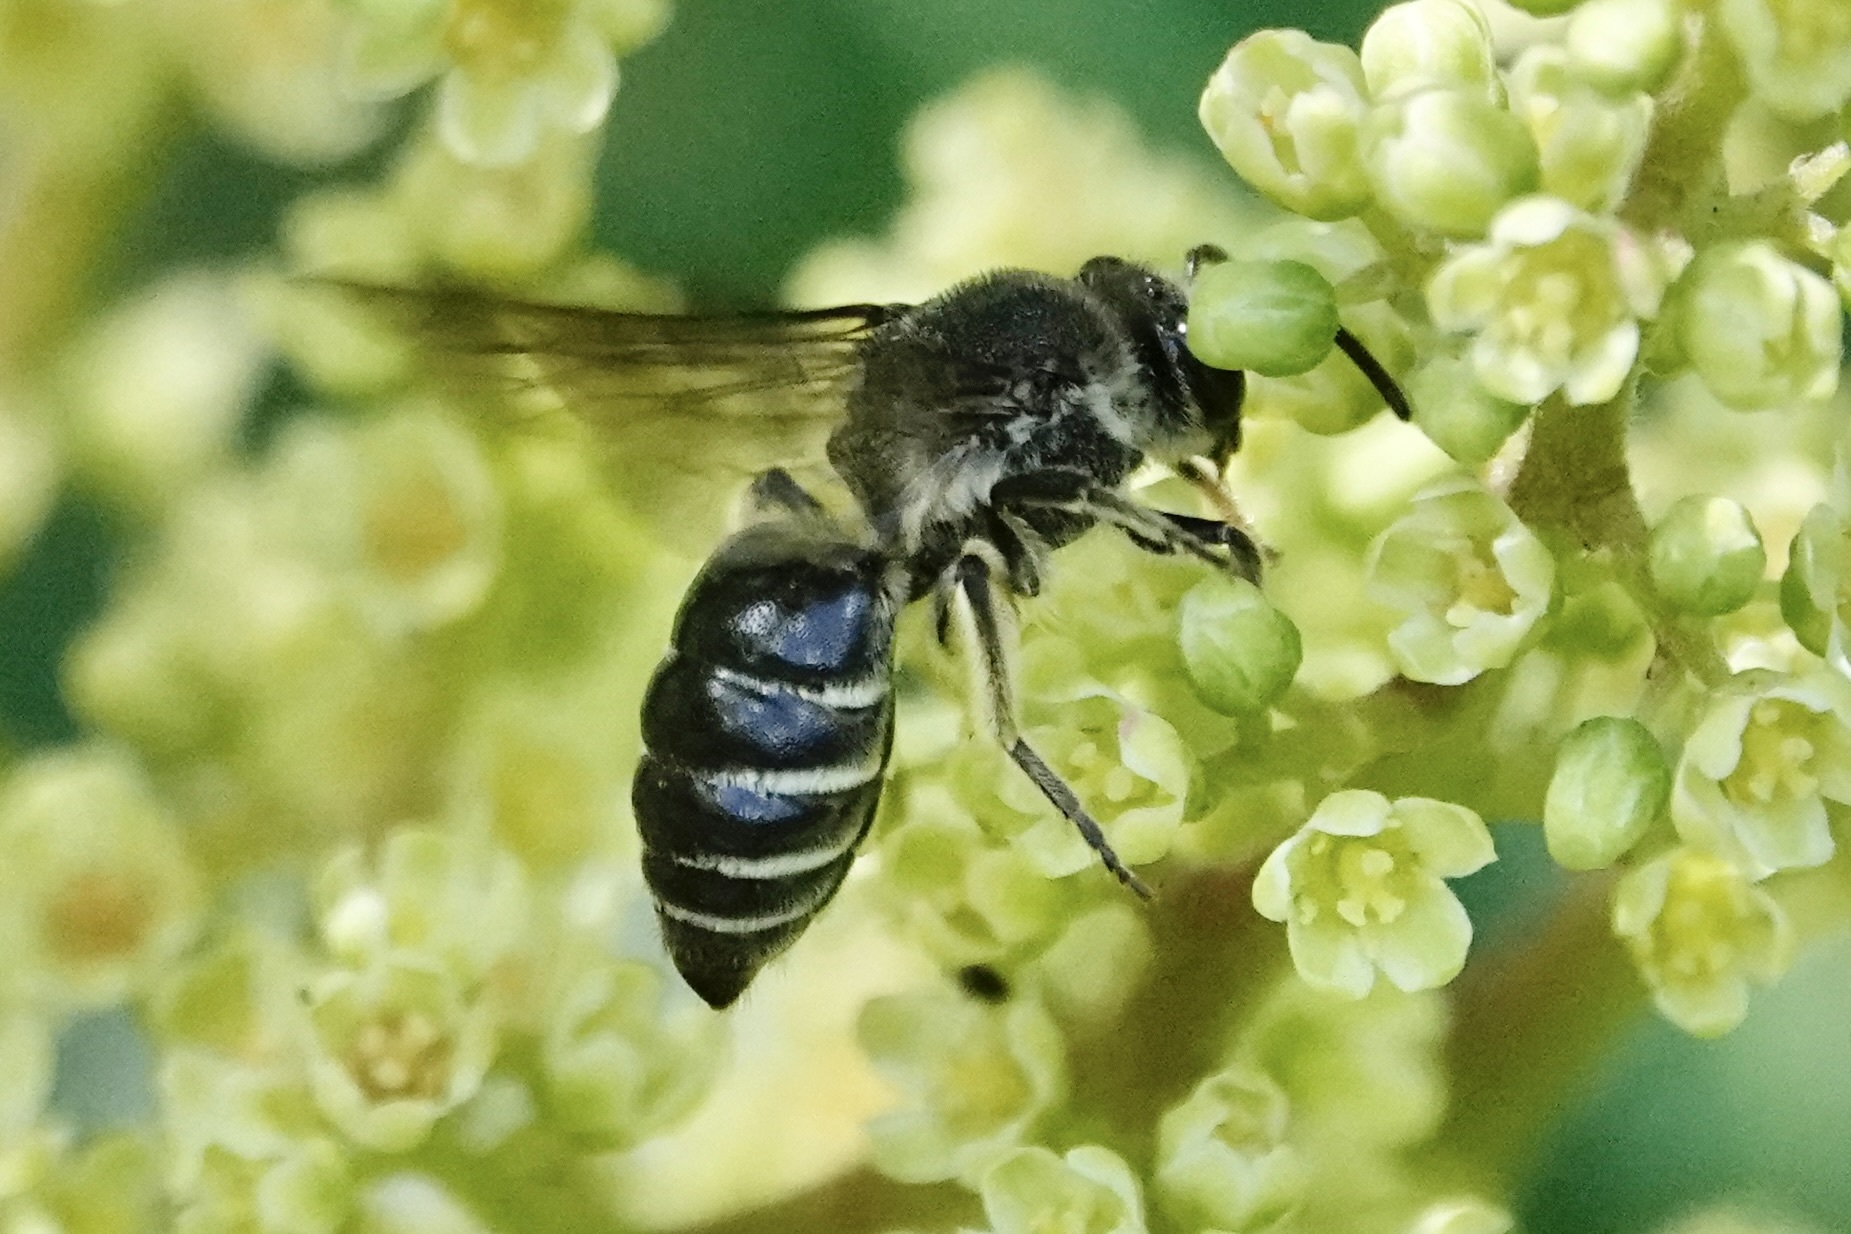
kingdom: Animalia
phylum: Arthropoda
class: Insecta
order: Hymenoptera
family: Colletidae
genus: Colletes
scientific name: Colletes nudus
